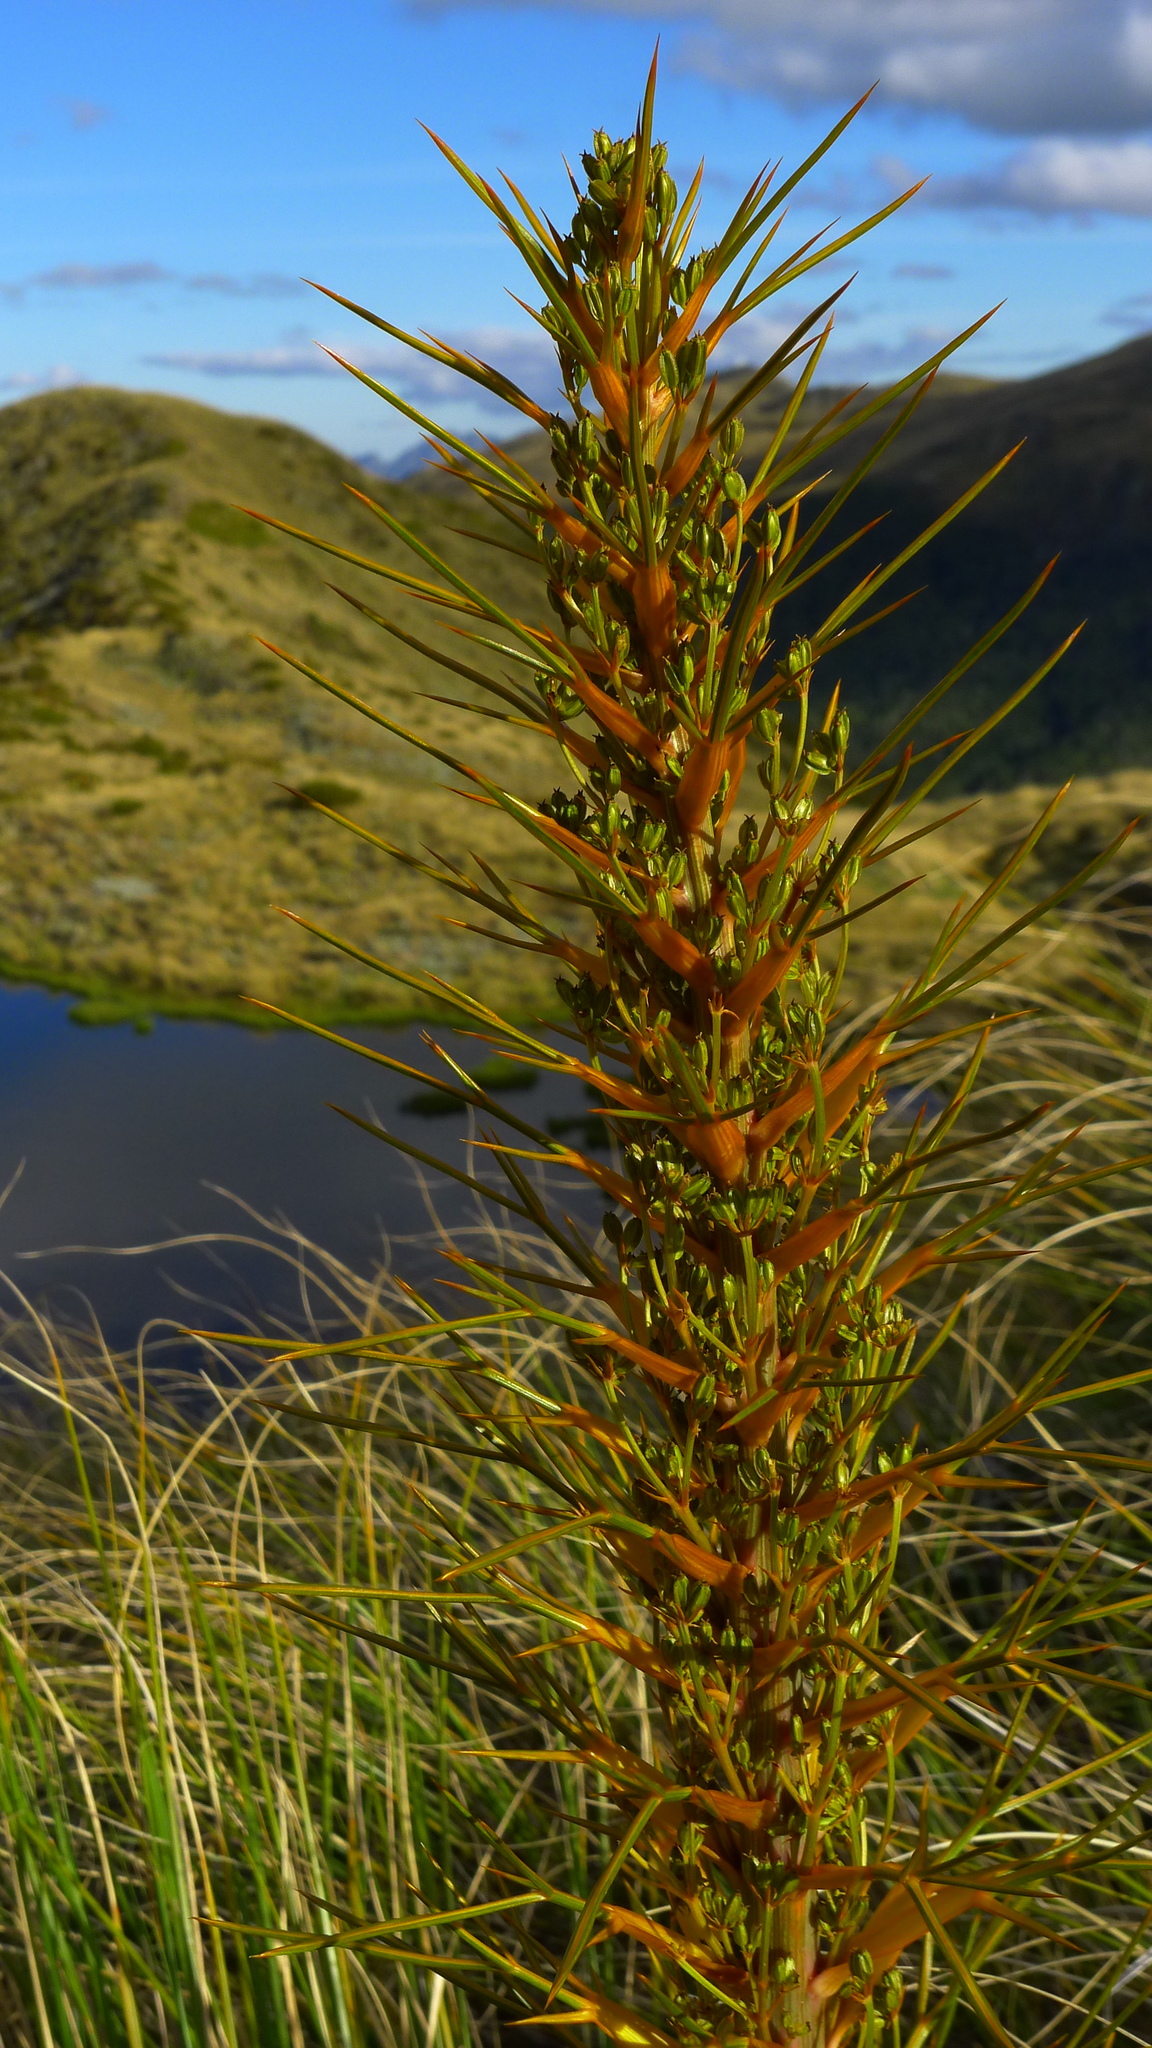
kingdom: Plantae
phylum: Tracheophyta
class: Magnoliopsida
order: Apiales
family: Apiaceae
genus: Aciphylla
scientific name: Aciphylla colensoi
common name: Colenso's spaniard
